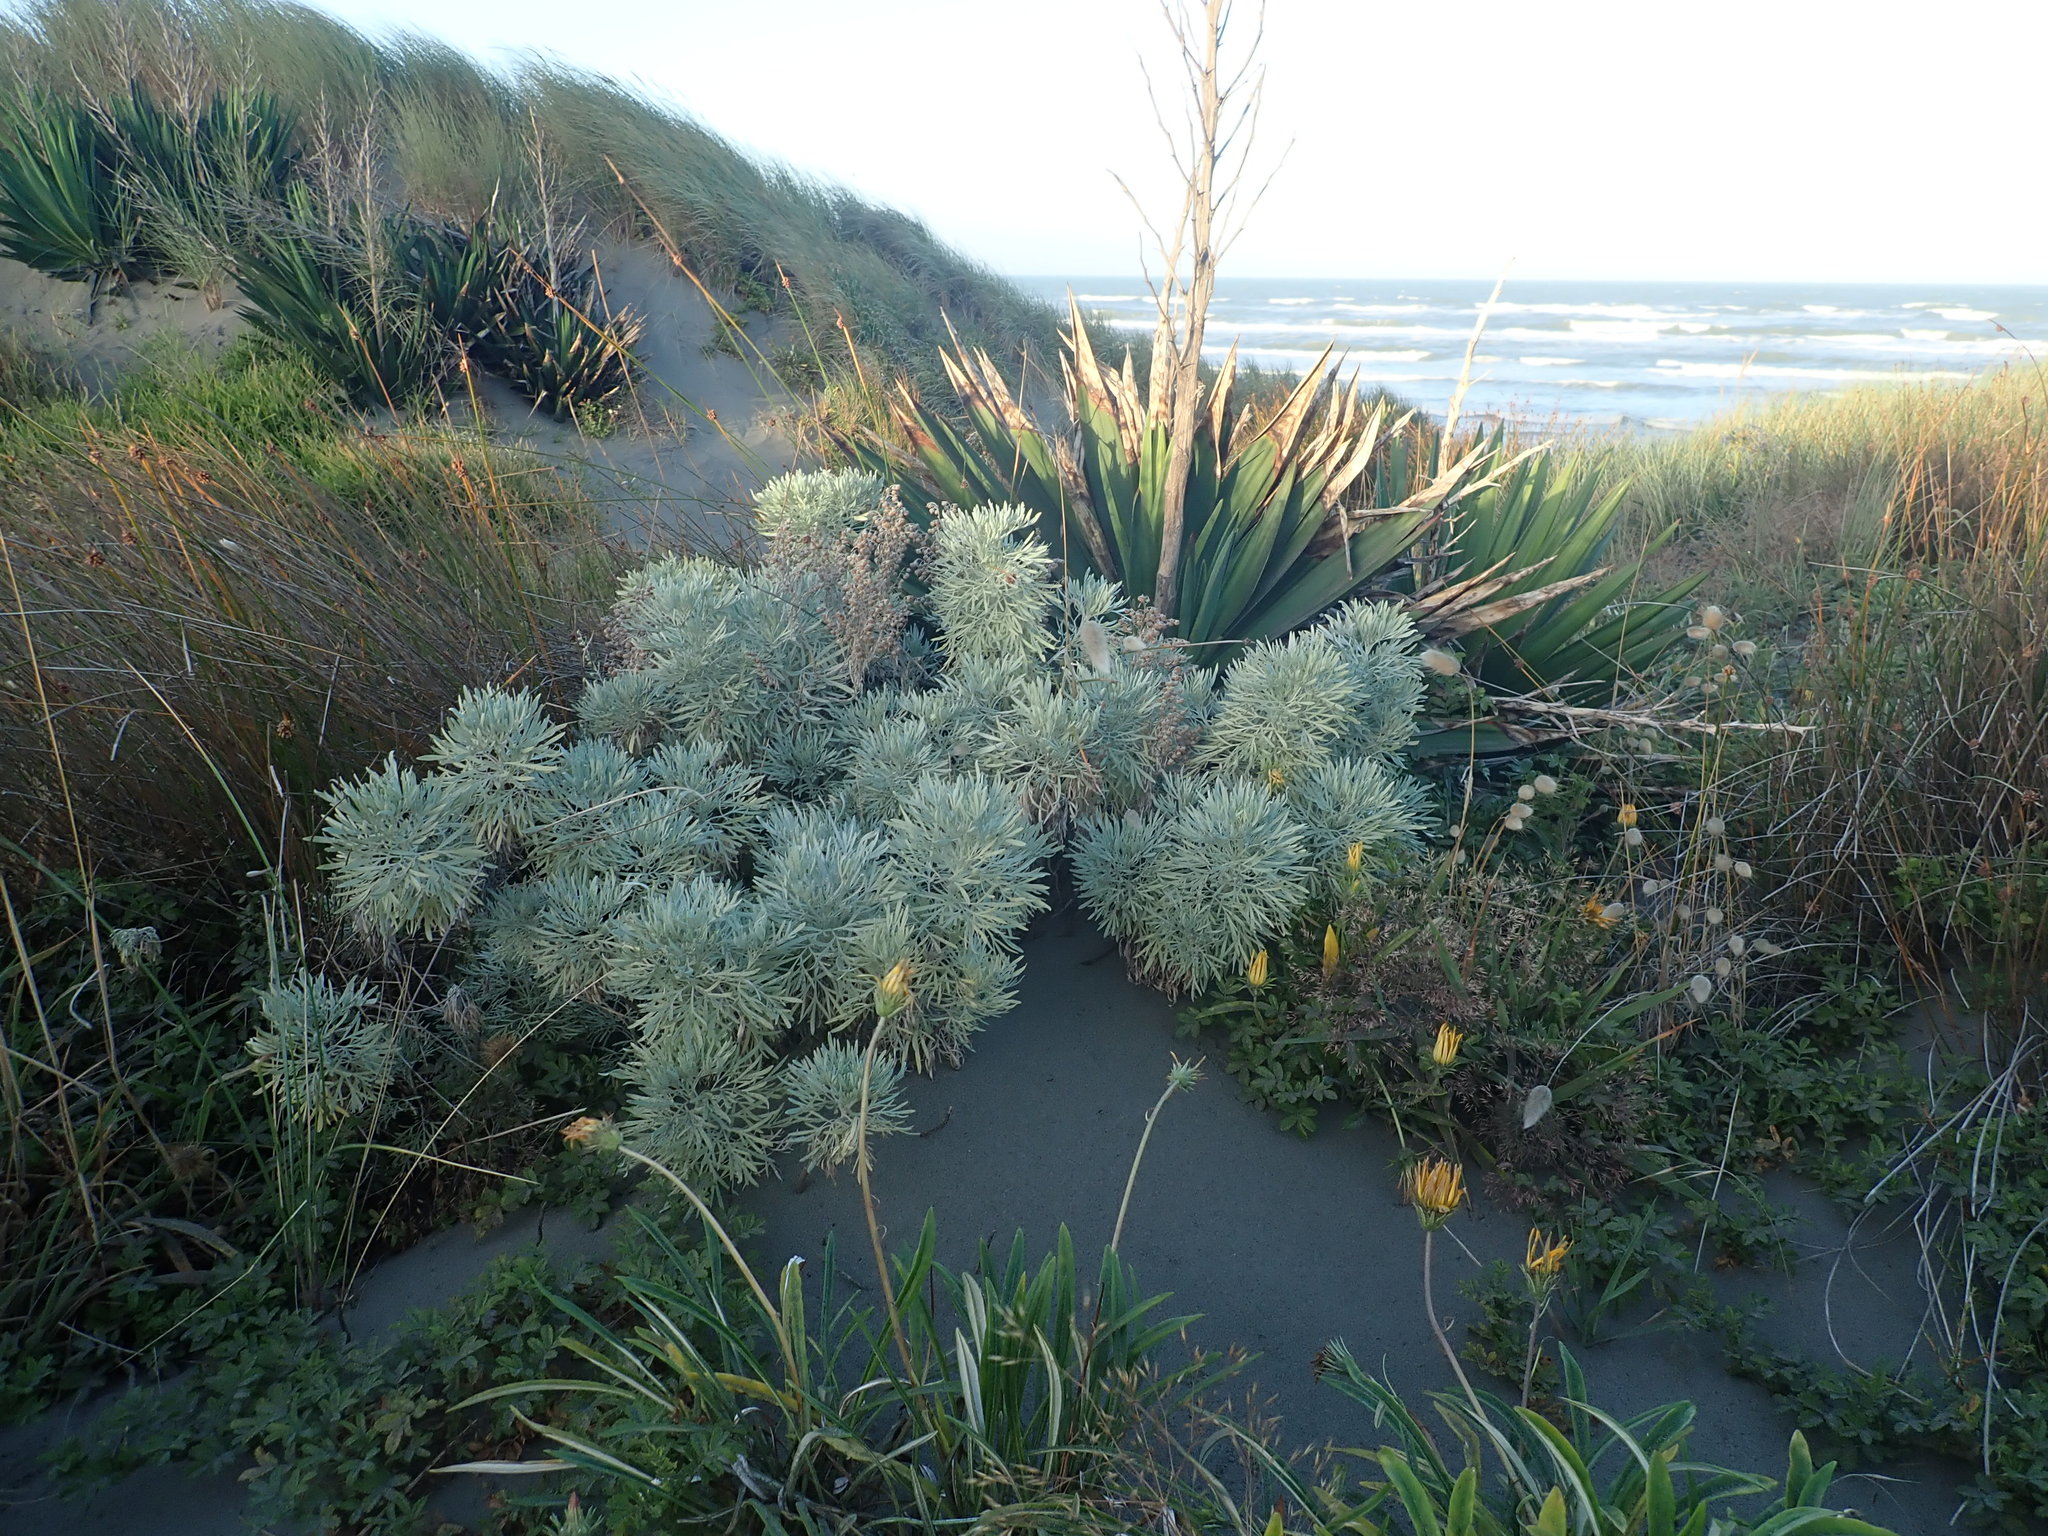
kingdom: Plantae
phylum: Tracheophyta
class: Liliopsida
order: Asparagales
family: Asparagaceae
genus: Yucca
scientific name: Yucca gloriosa
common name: Spanish-dagger
